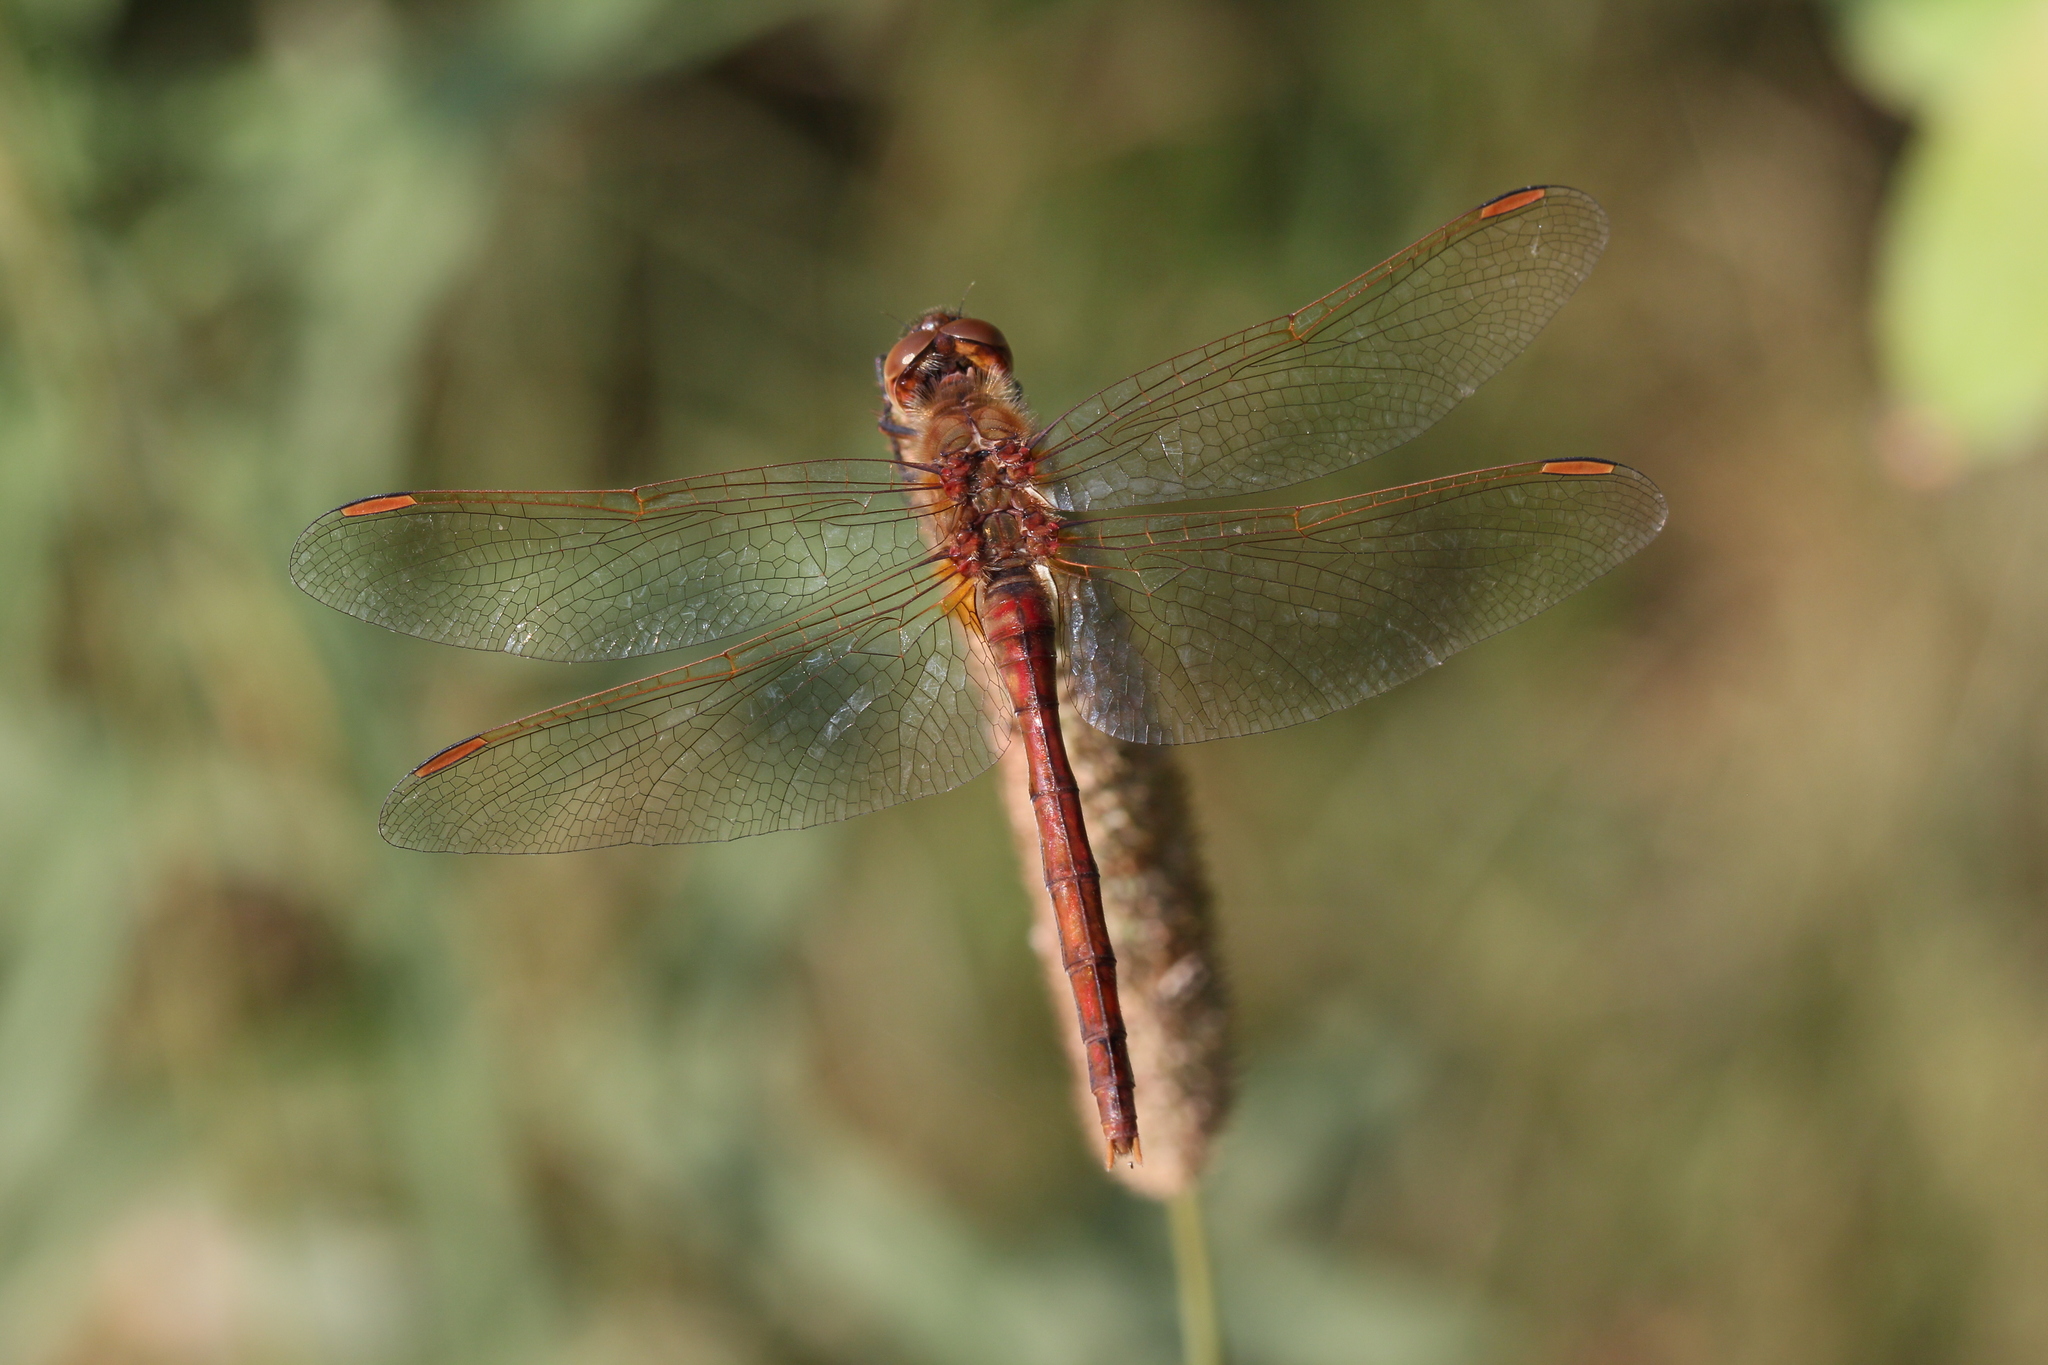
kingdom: Animalia
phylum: Arthropoda
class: Insecta
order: Odonata
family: Libellulidae
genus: Sympetrum
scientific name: Sympetrum costiferum
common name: Saffron-winged meadowhawk
